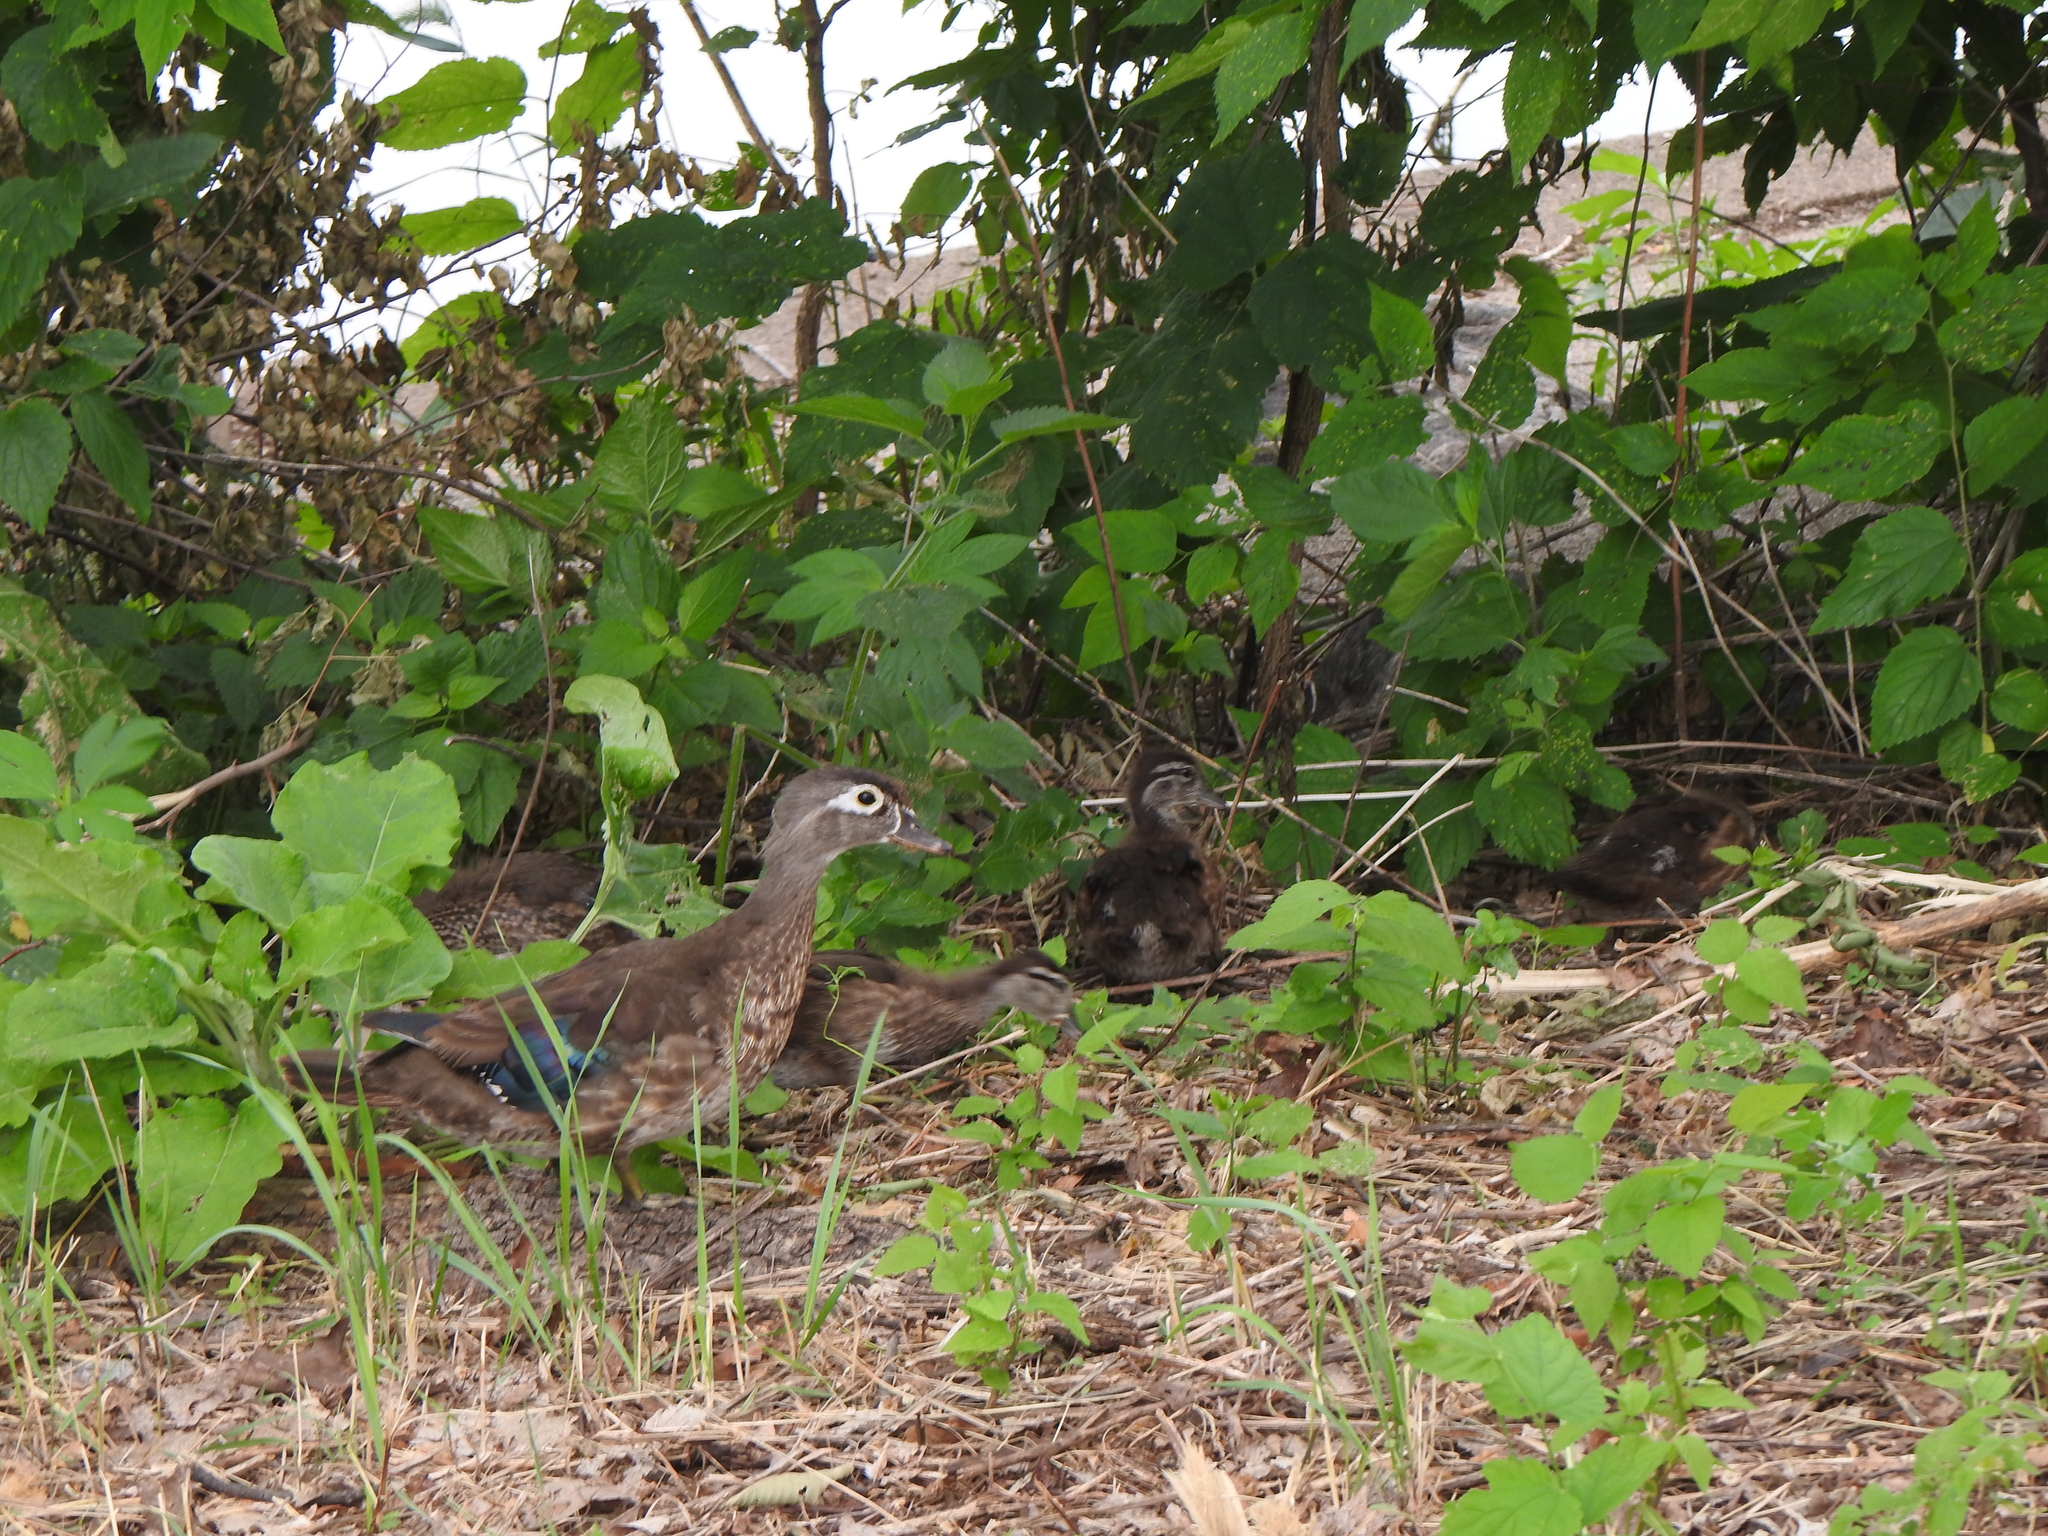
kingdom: Animalia
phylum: Chordata
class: Aves
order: Anseriformes
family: Anatidae
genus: Aix
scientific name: Aix sponsa
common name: Wood duck
